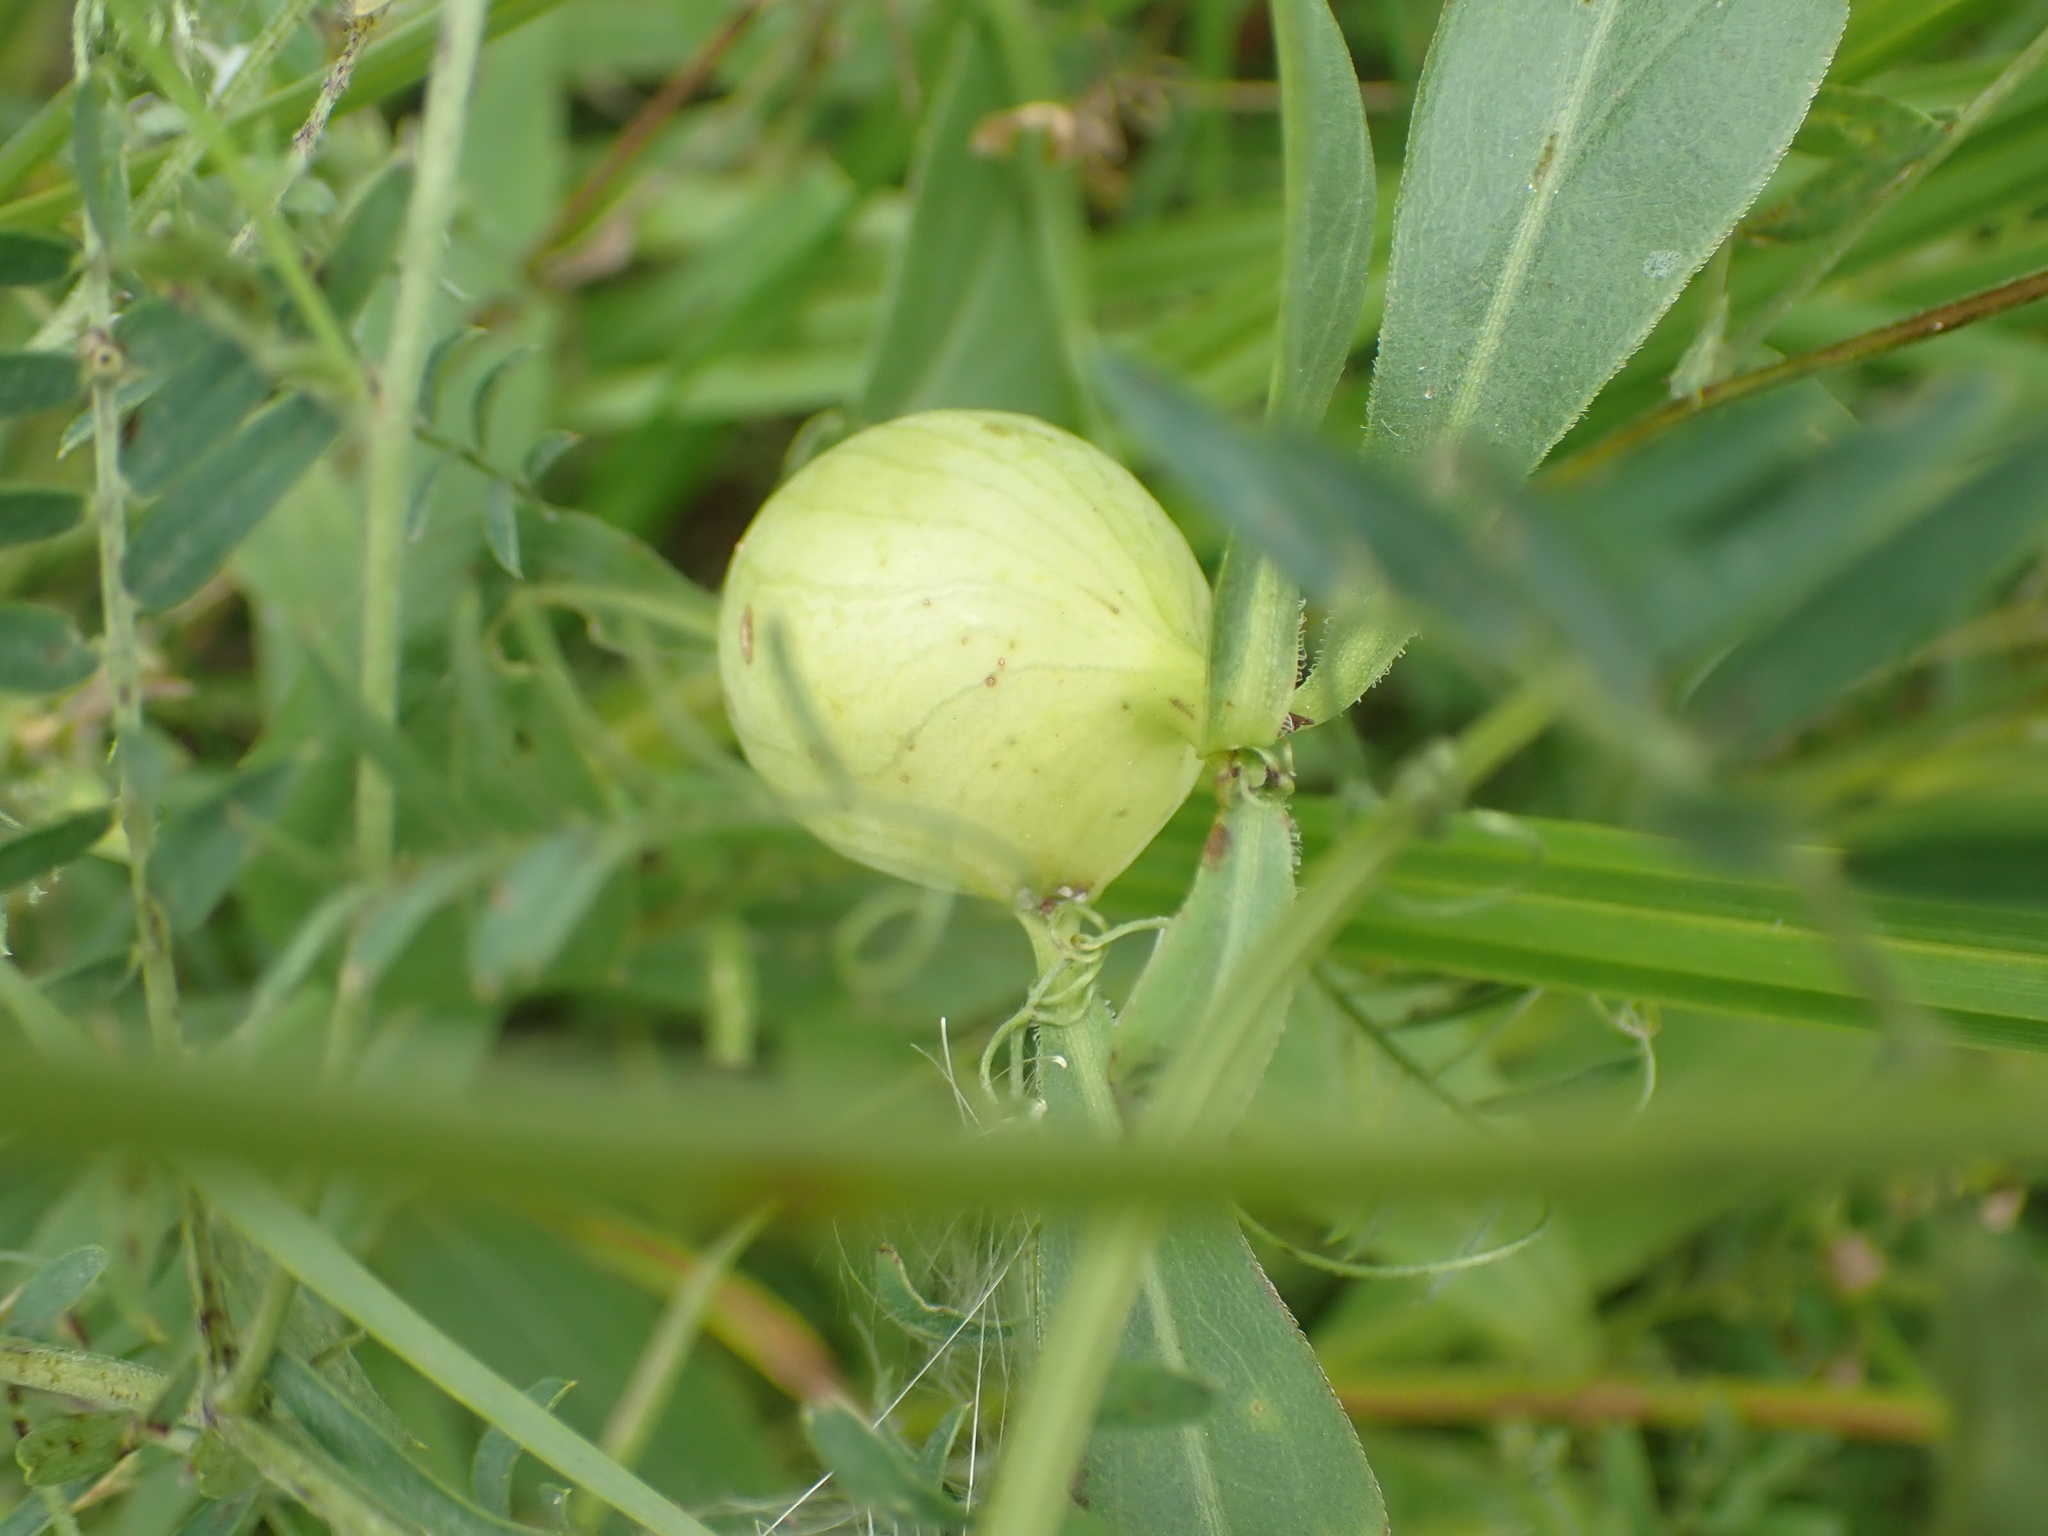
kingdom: Animalia
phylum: Arthropoda
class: Insecta
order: Diptera
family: Tephritidae
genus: Eurosta
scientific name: Eurosta solidaginis
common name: Goldenrod gall fly
